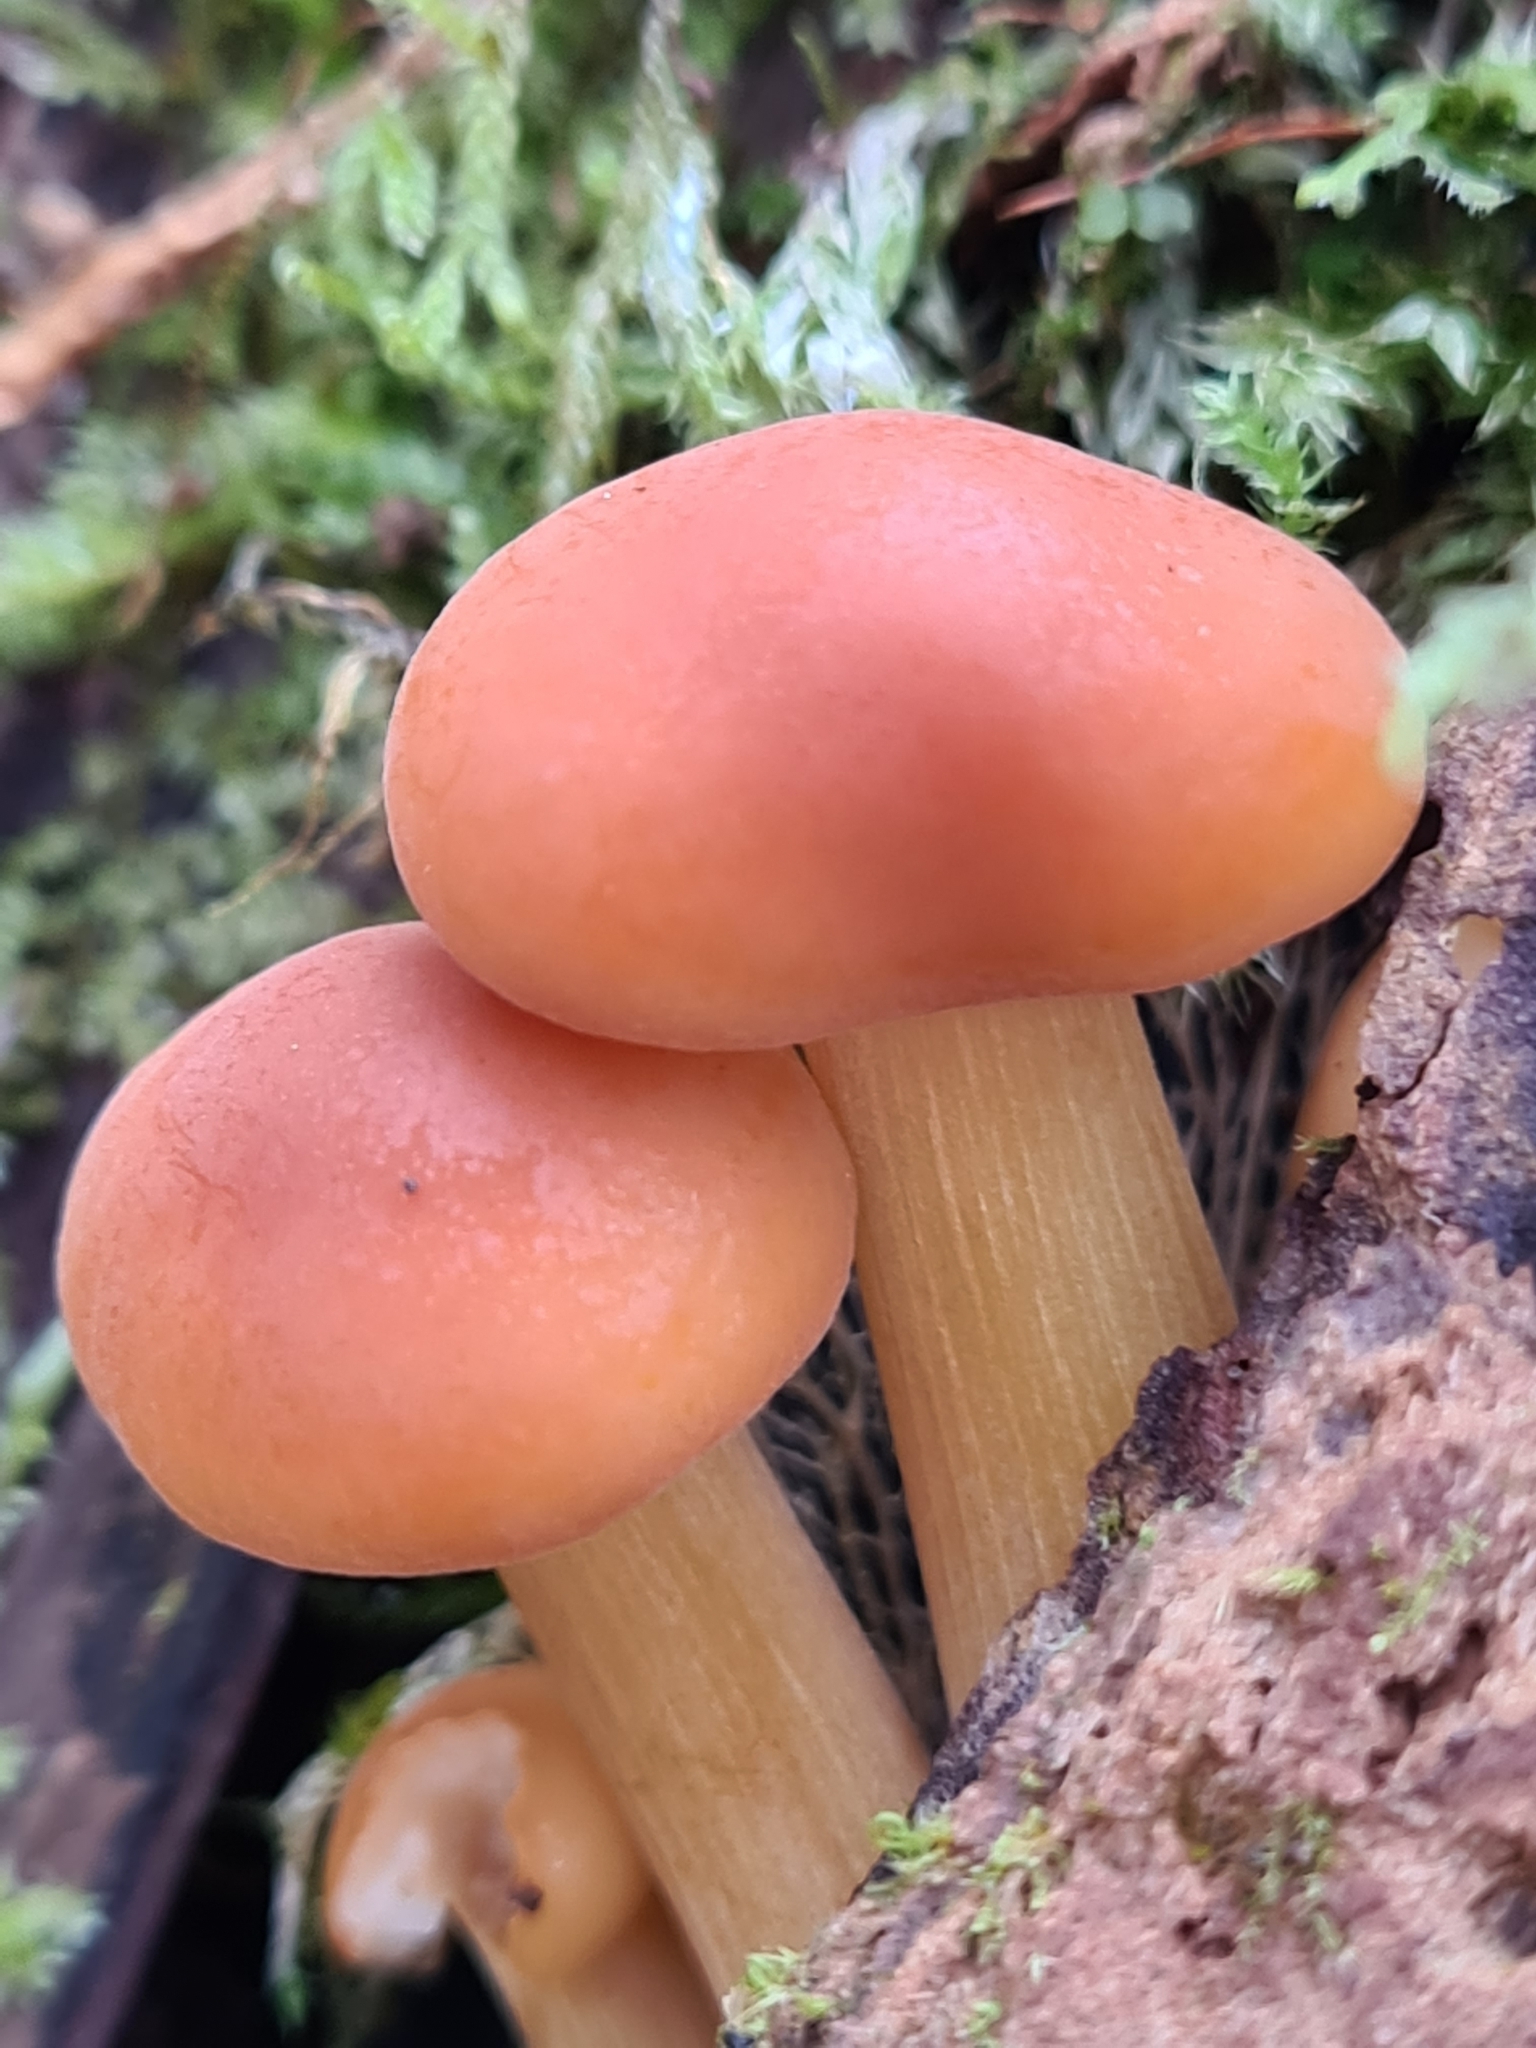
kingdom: Fungi
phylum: Basidiomycota
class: Agaricomycetes
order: Agaricales
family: Physalacriaceae
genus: Flammulina
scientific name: Flammulina
